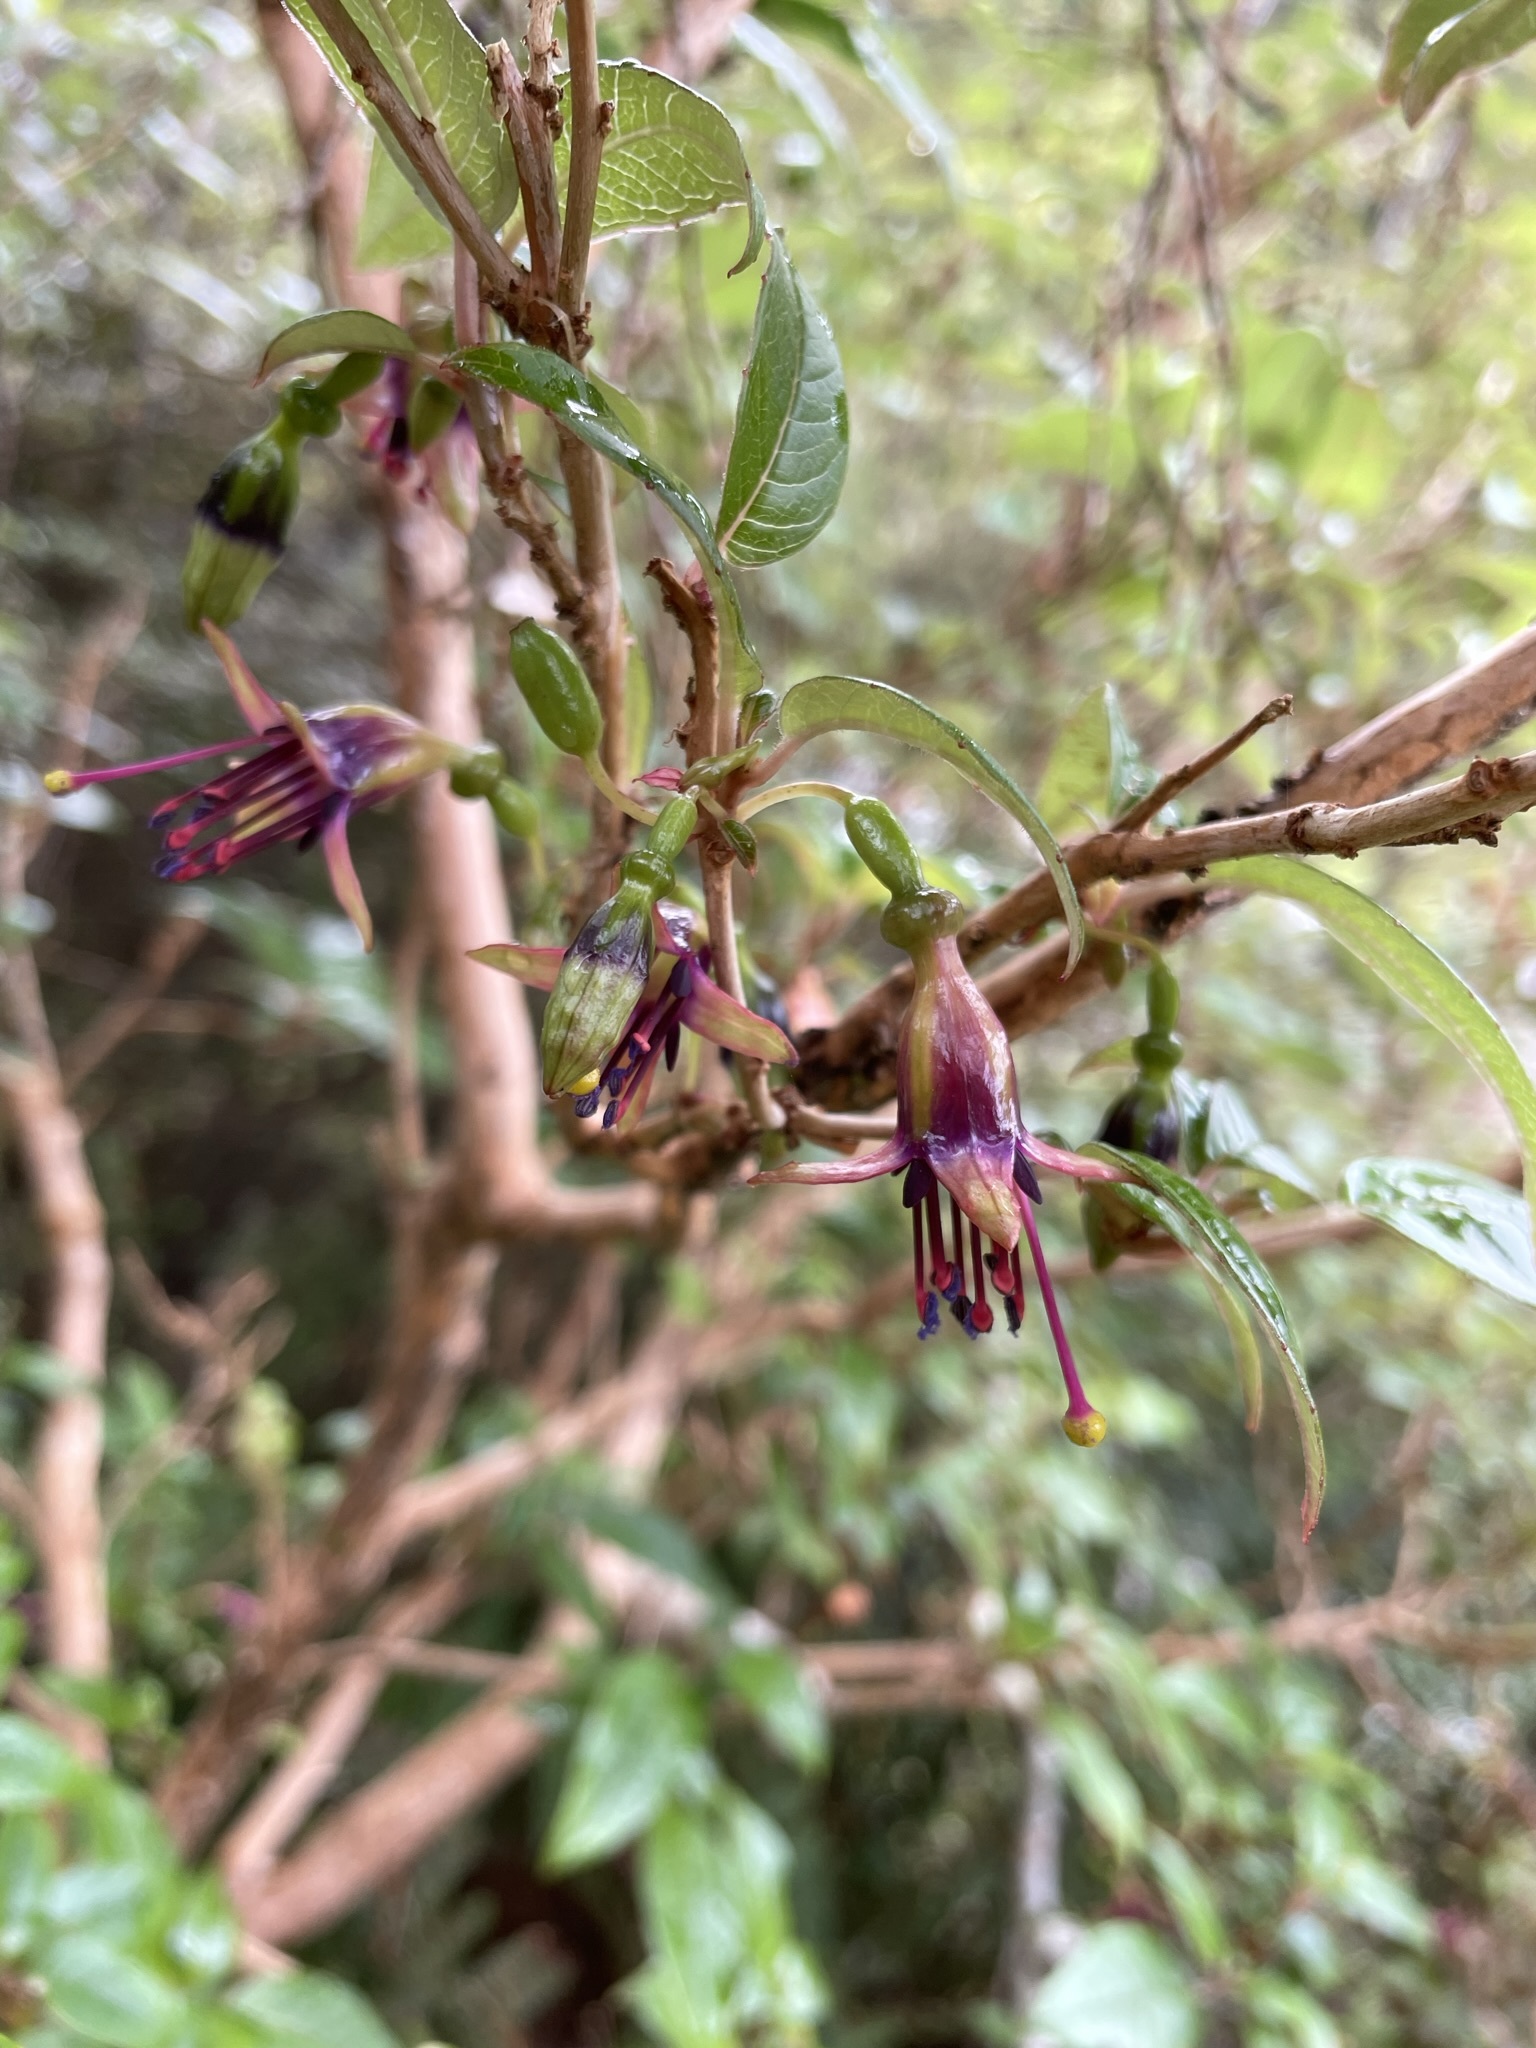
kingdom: Plantae
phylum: Tracheophyta
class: Magnoliopsida
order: Myrtales
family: Onagraceae
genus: Fuchsia
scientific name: Fuchsia excorticata
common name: Tree fuchsia
